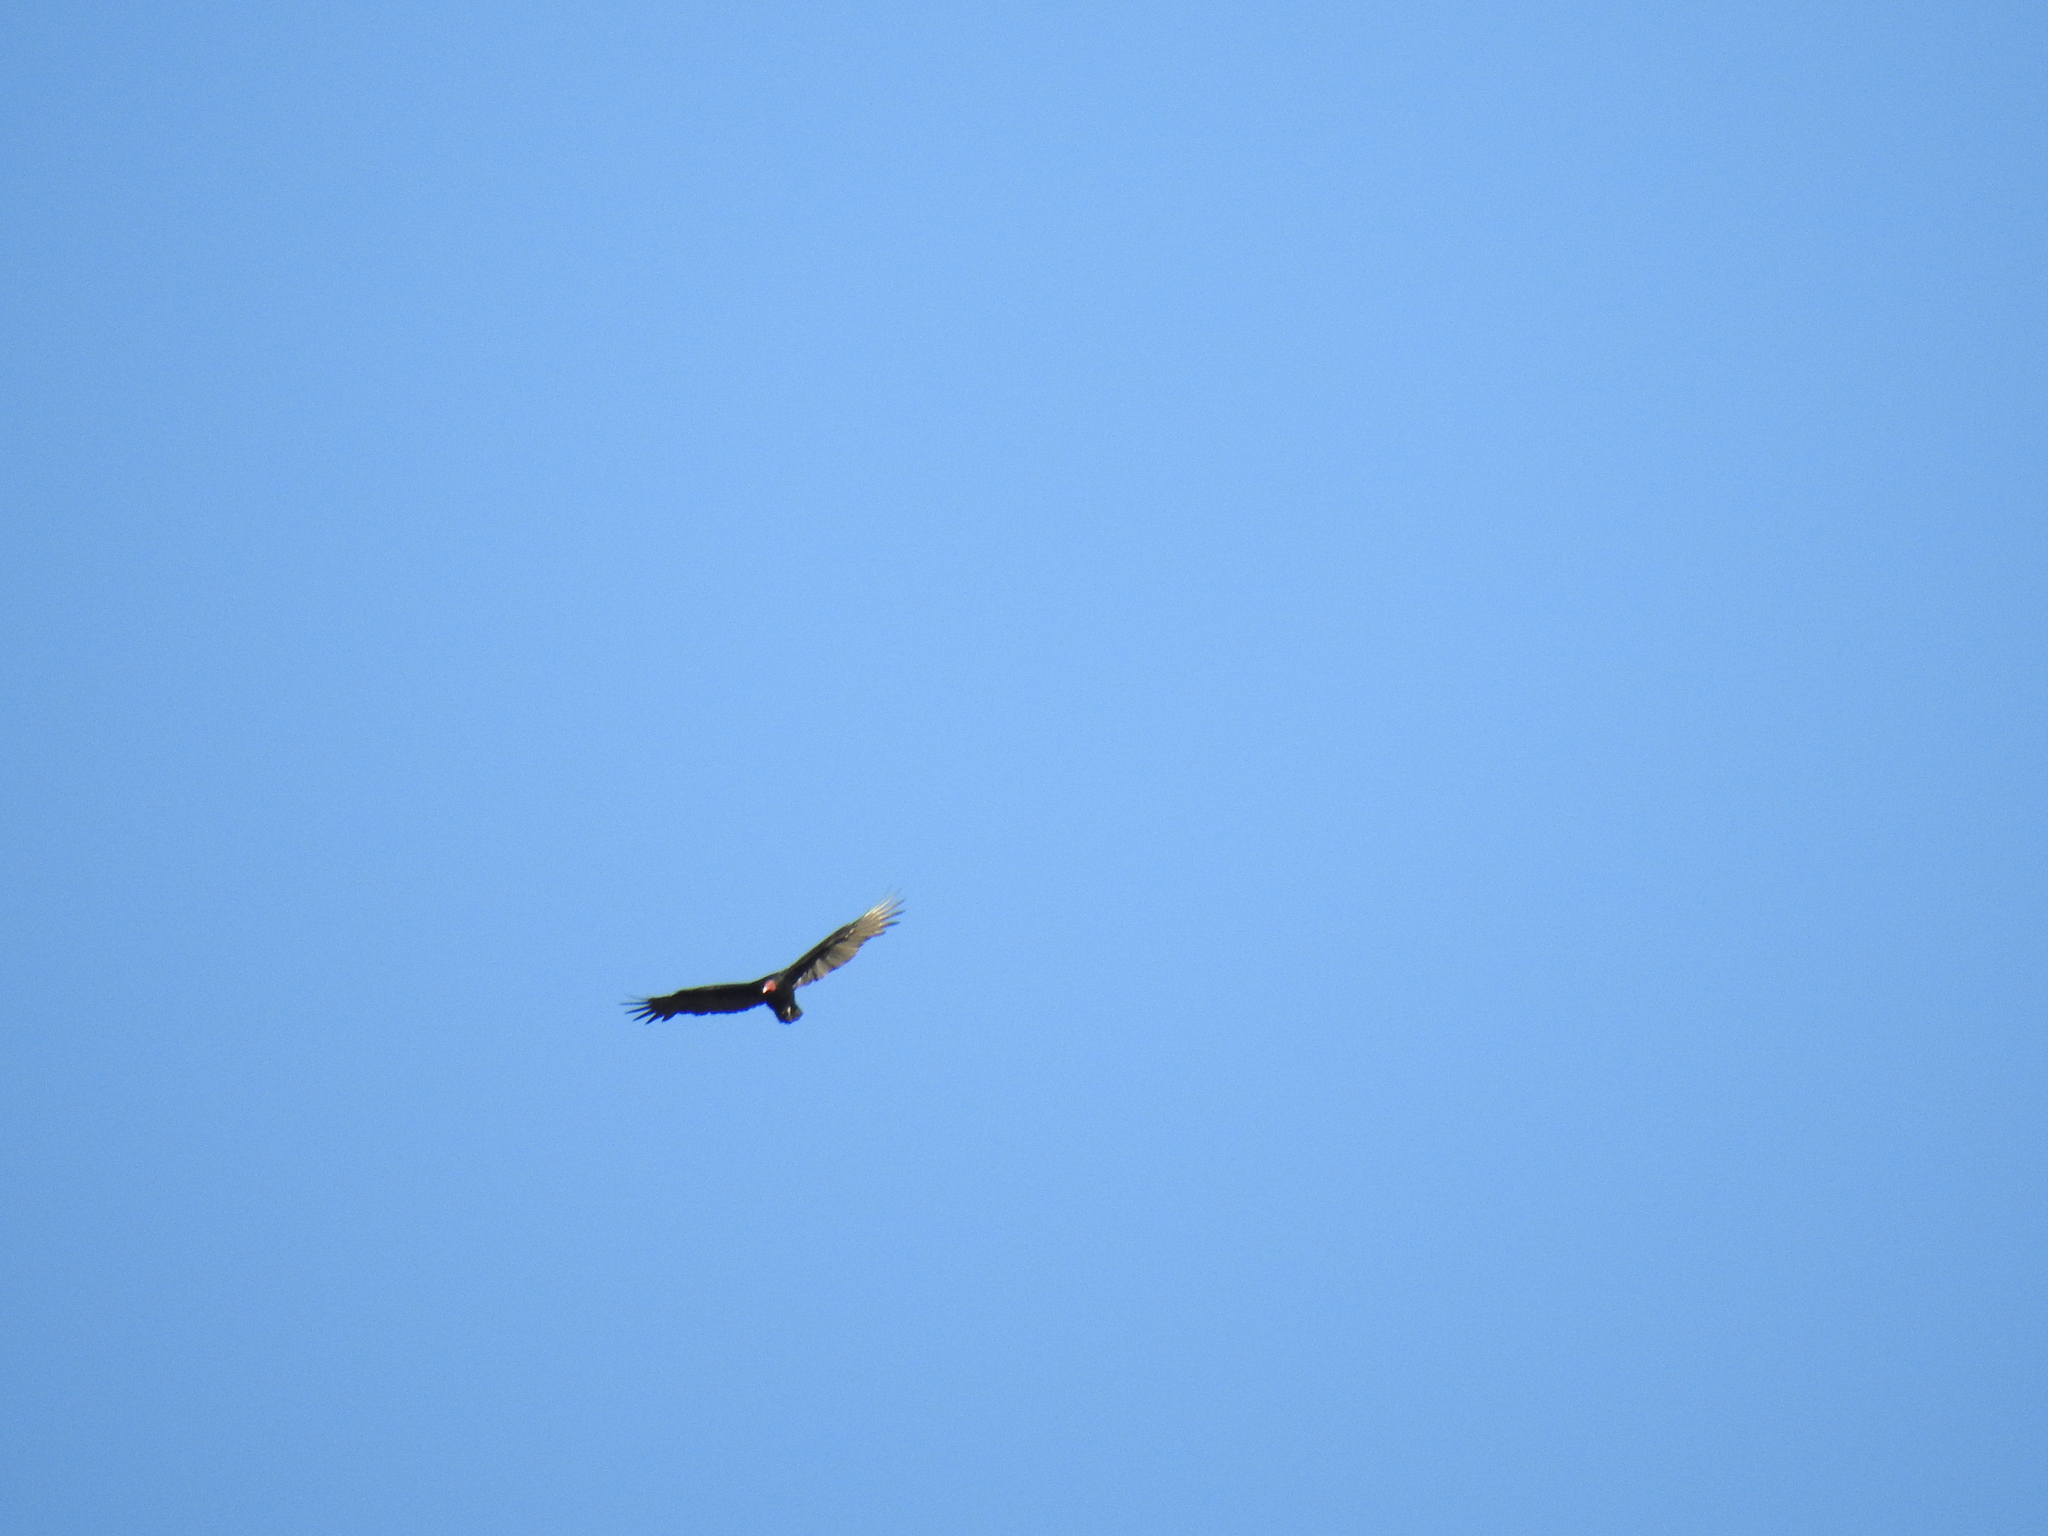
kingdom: Animalia
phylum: Chordata
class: Aves
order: Accipitriformes
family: Cathartidae
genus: Cathartes
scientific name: Cathartes aura
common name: Turkey vulture
